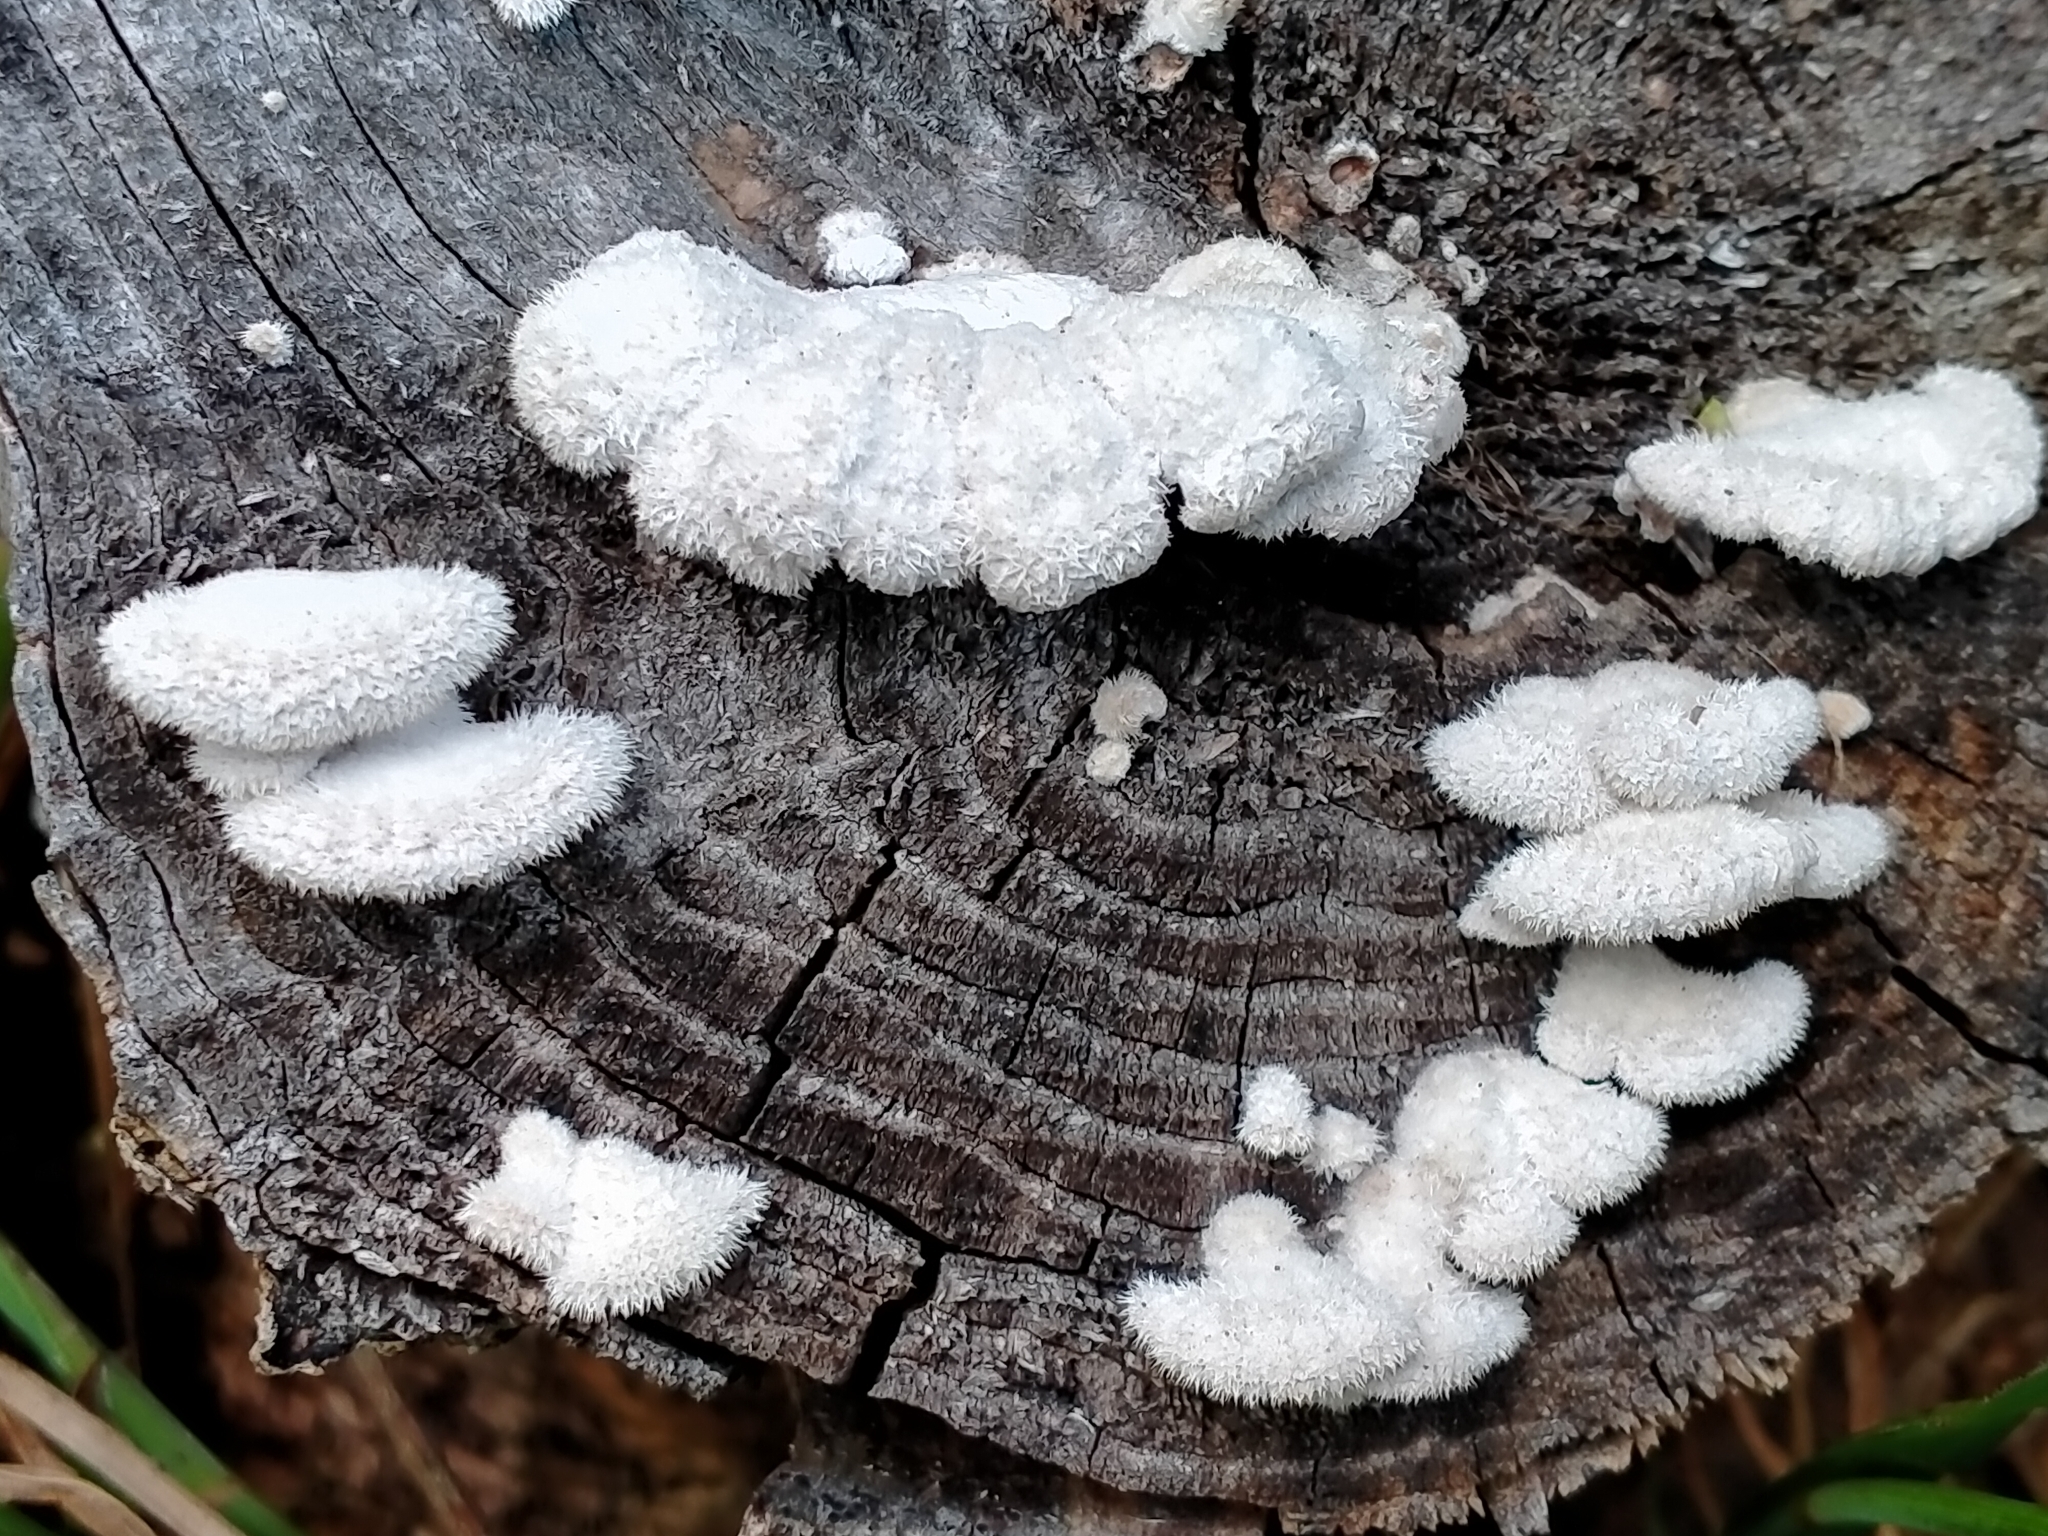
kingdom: Fungi
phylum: Basidiomycota
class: Agaricomycetes
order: Agaricales
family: Schizophyllaceae
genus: Schizophyllum
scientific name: Schizophyllum commune
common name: Common porecrust
